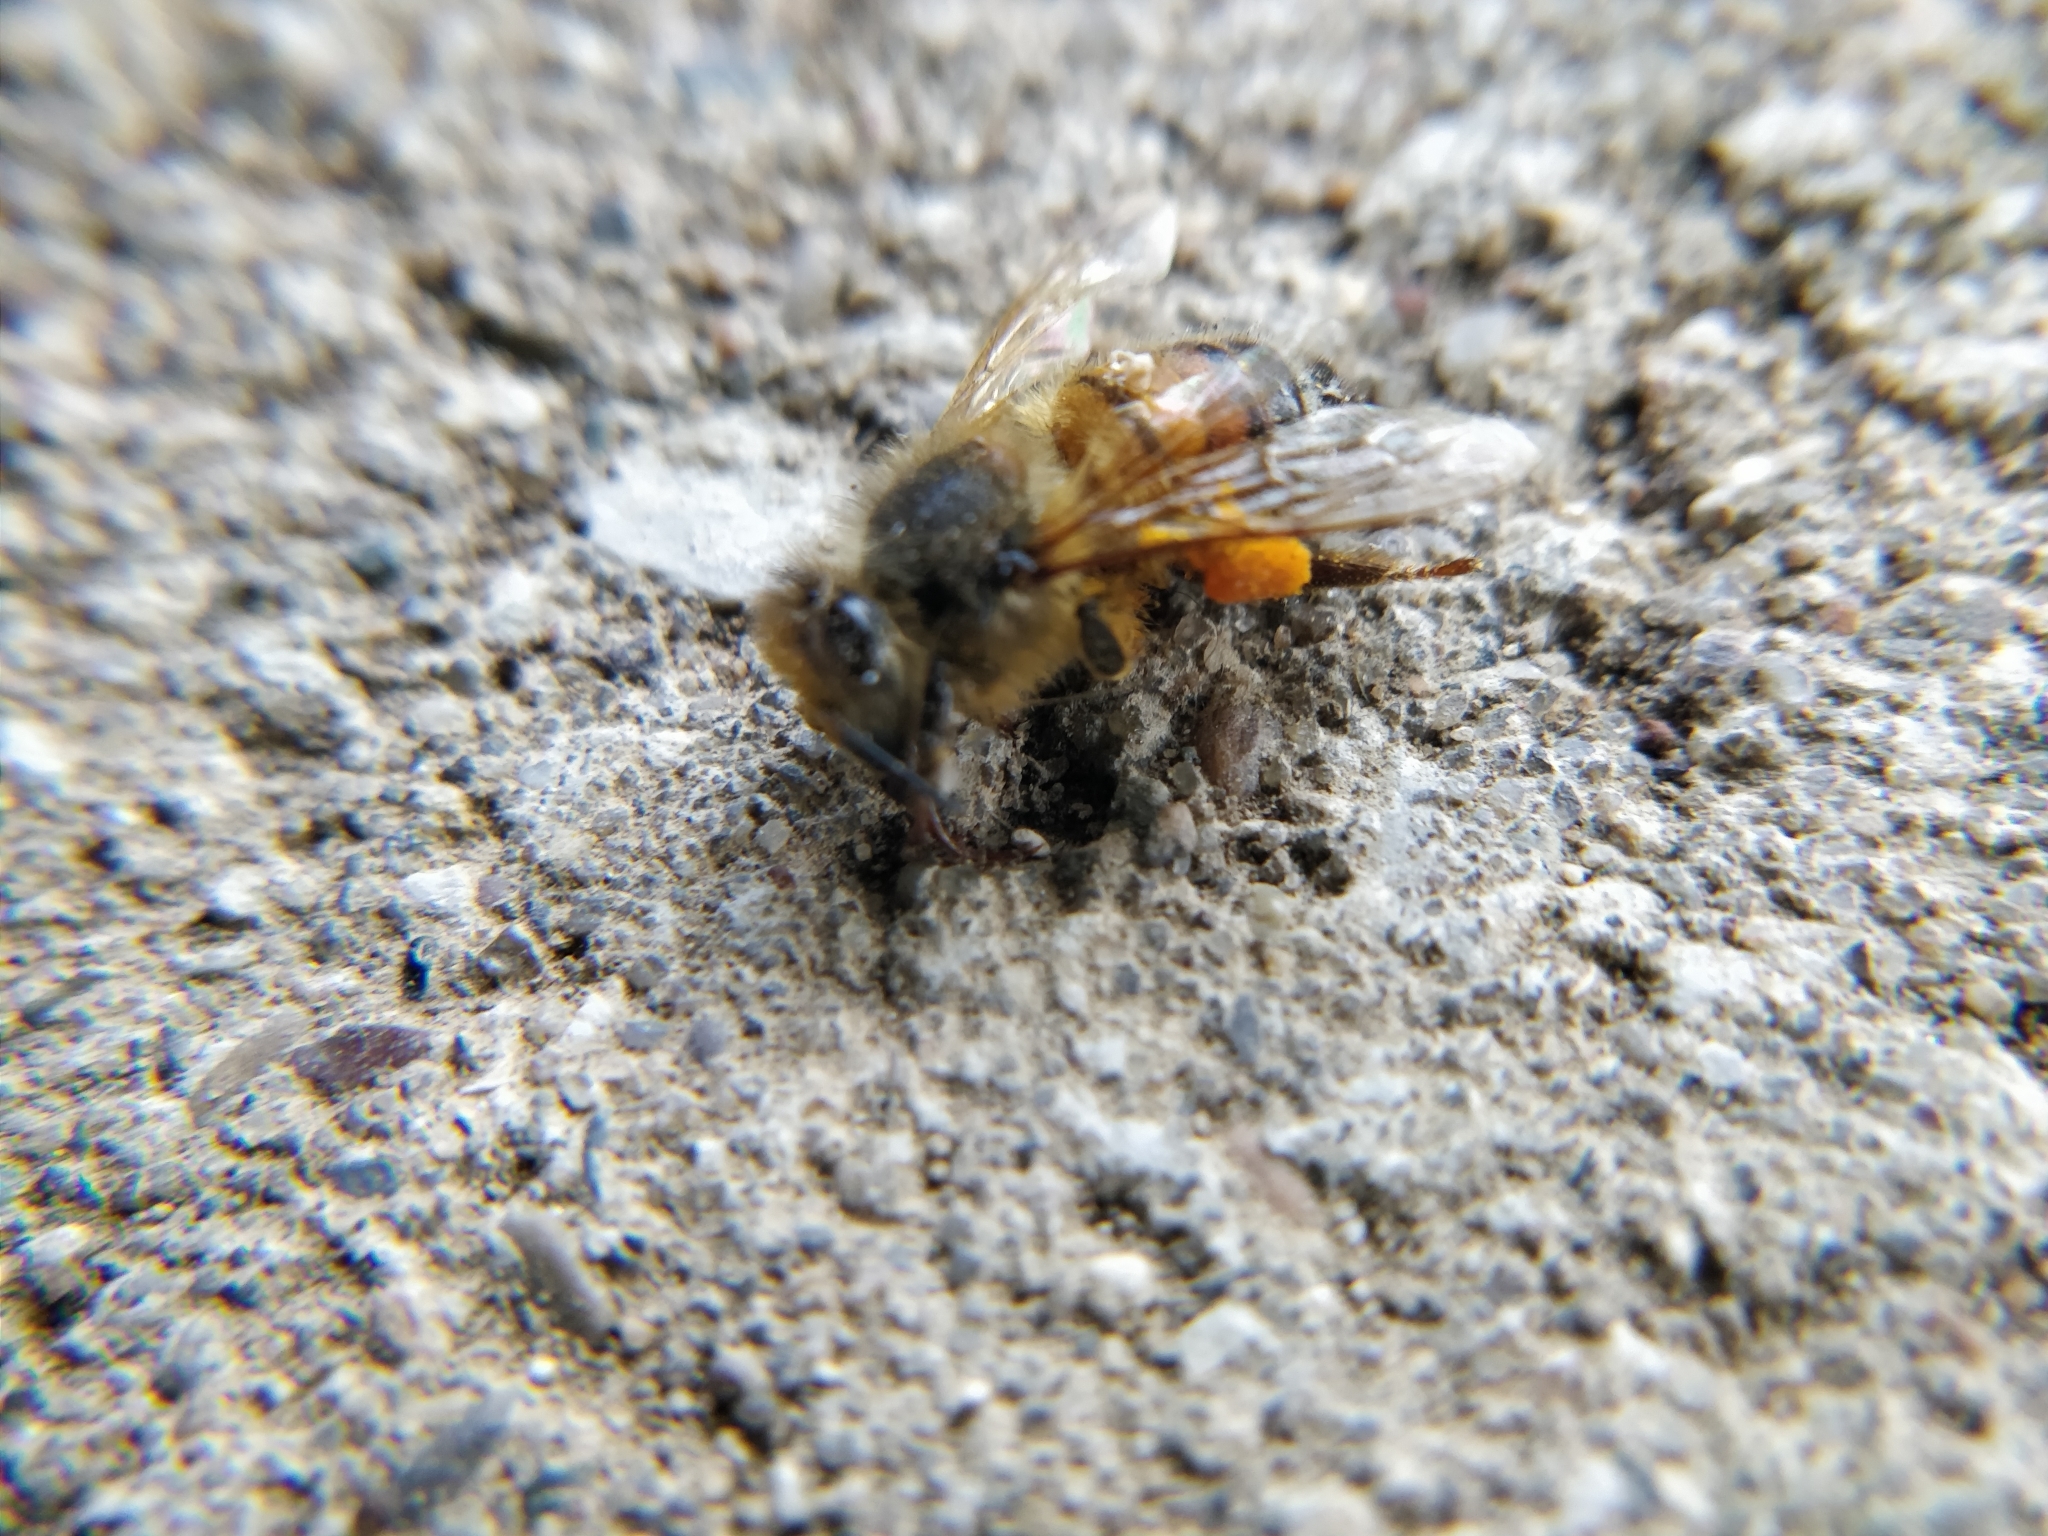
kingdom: Animalia
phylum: Arthropoda
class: Insecta
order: Hymenoptera
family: Apidae
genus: Apis
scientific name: Apis mellifera
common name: Honey bee
